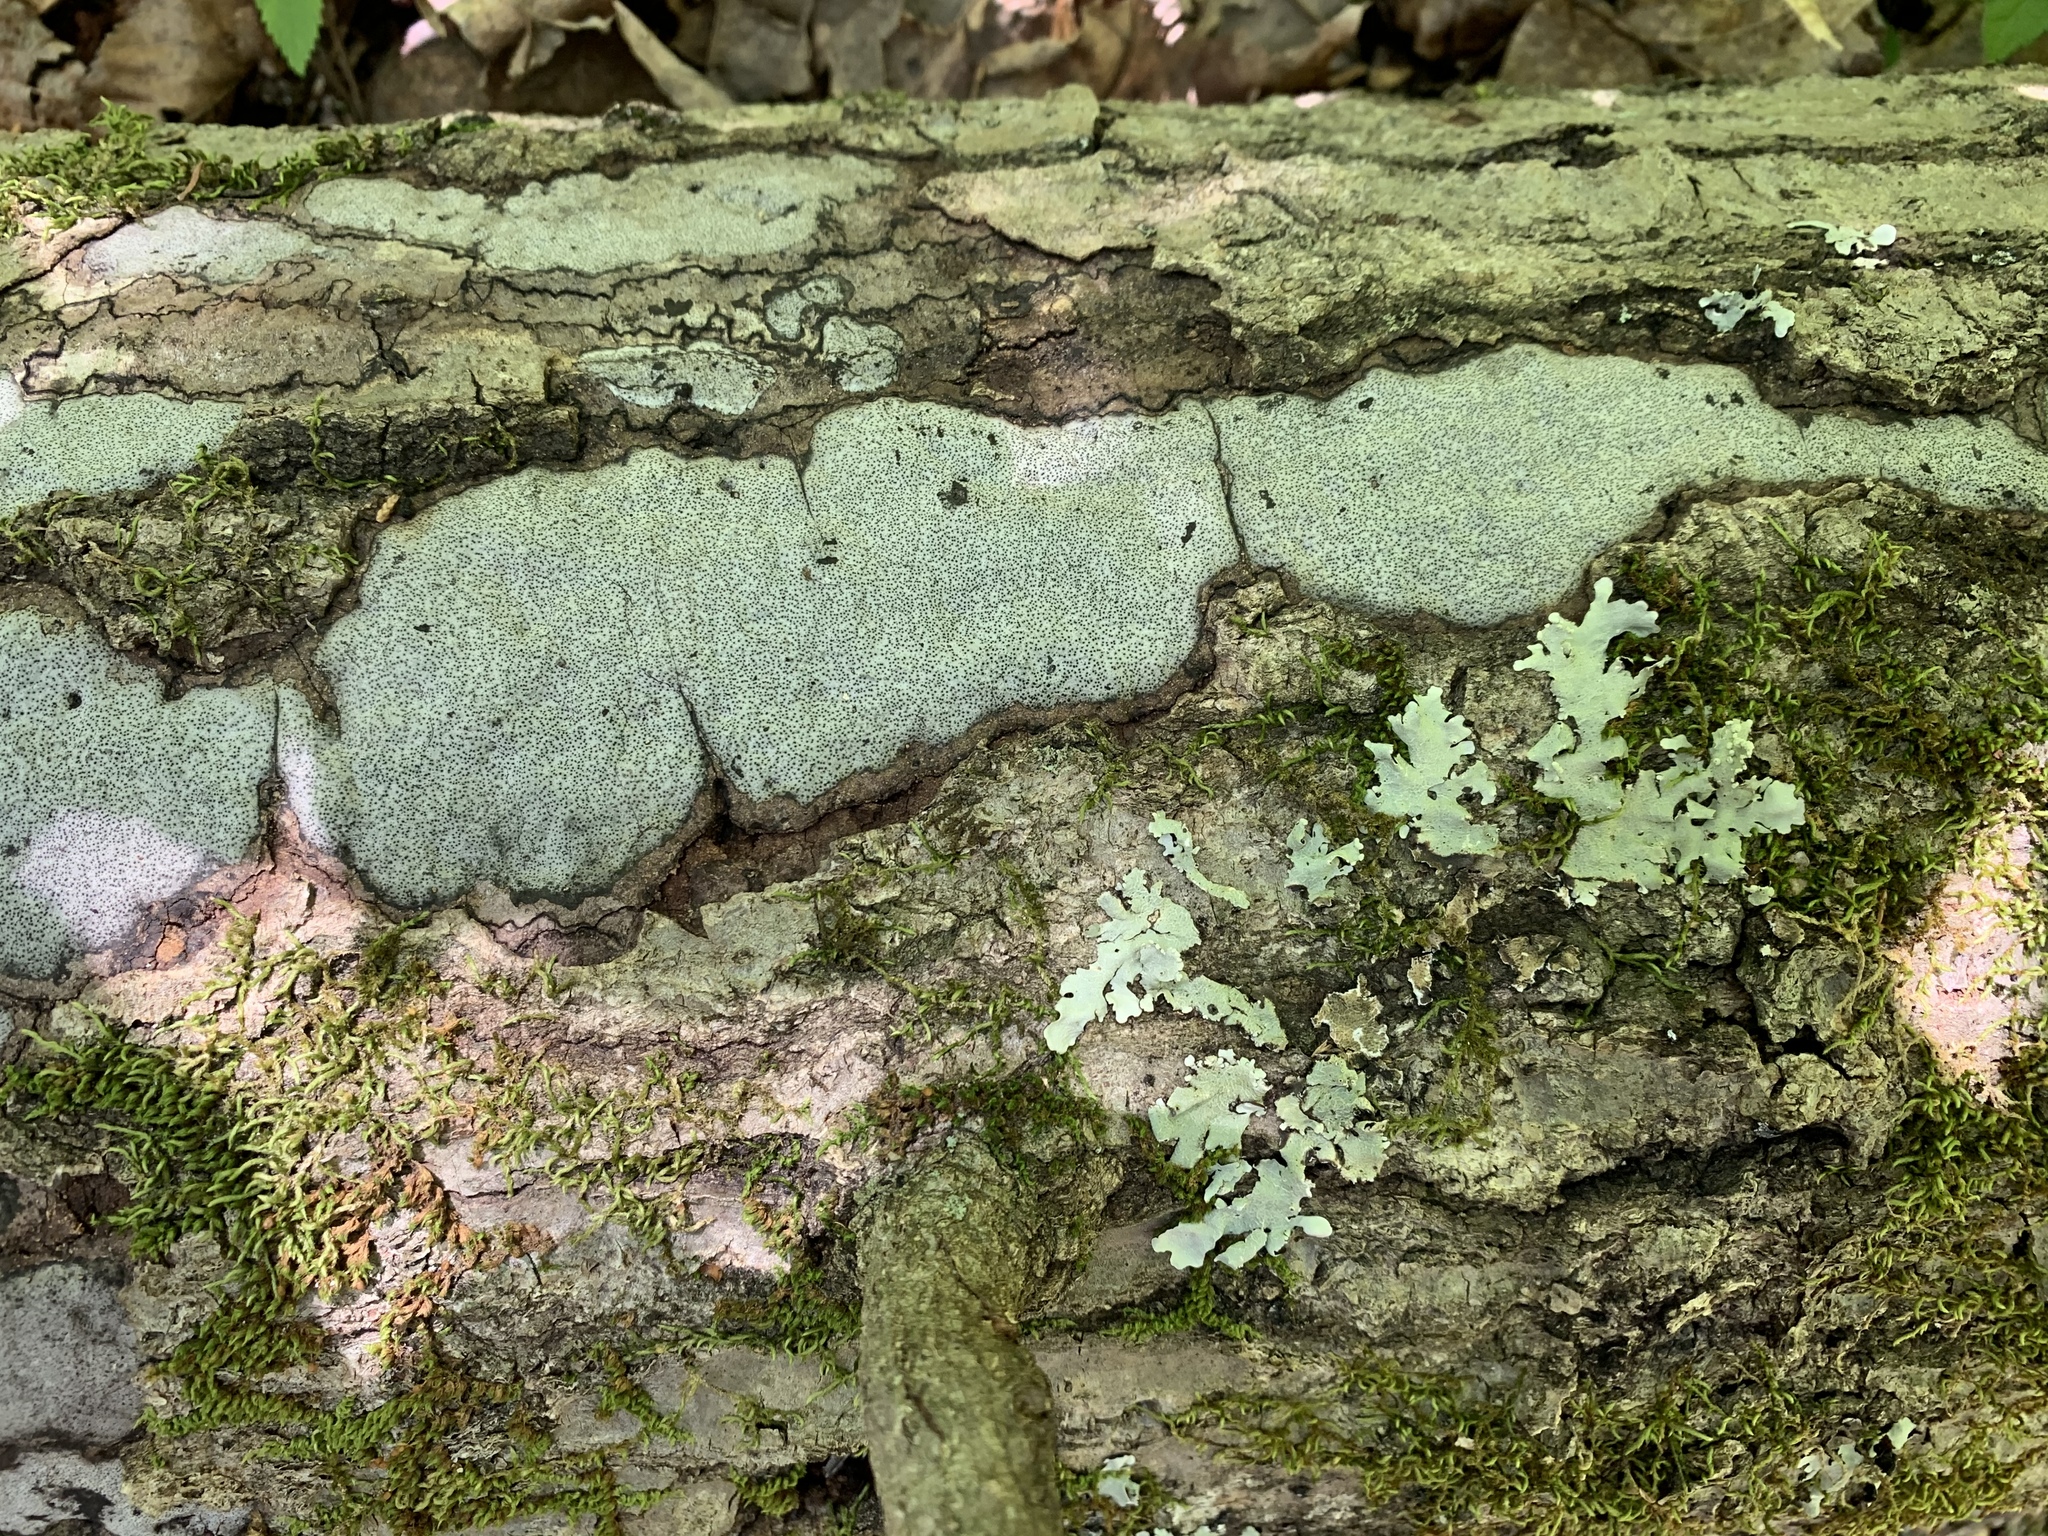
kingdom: Fungi
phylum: Ascomycota
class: Sordariomycetes
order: Xylariales
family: Graphostromataceae
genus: Biscogniauxia
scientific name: Biscogniauxia atropunctata
